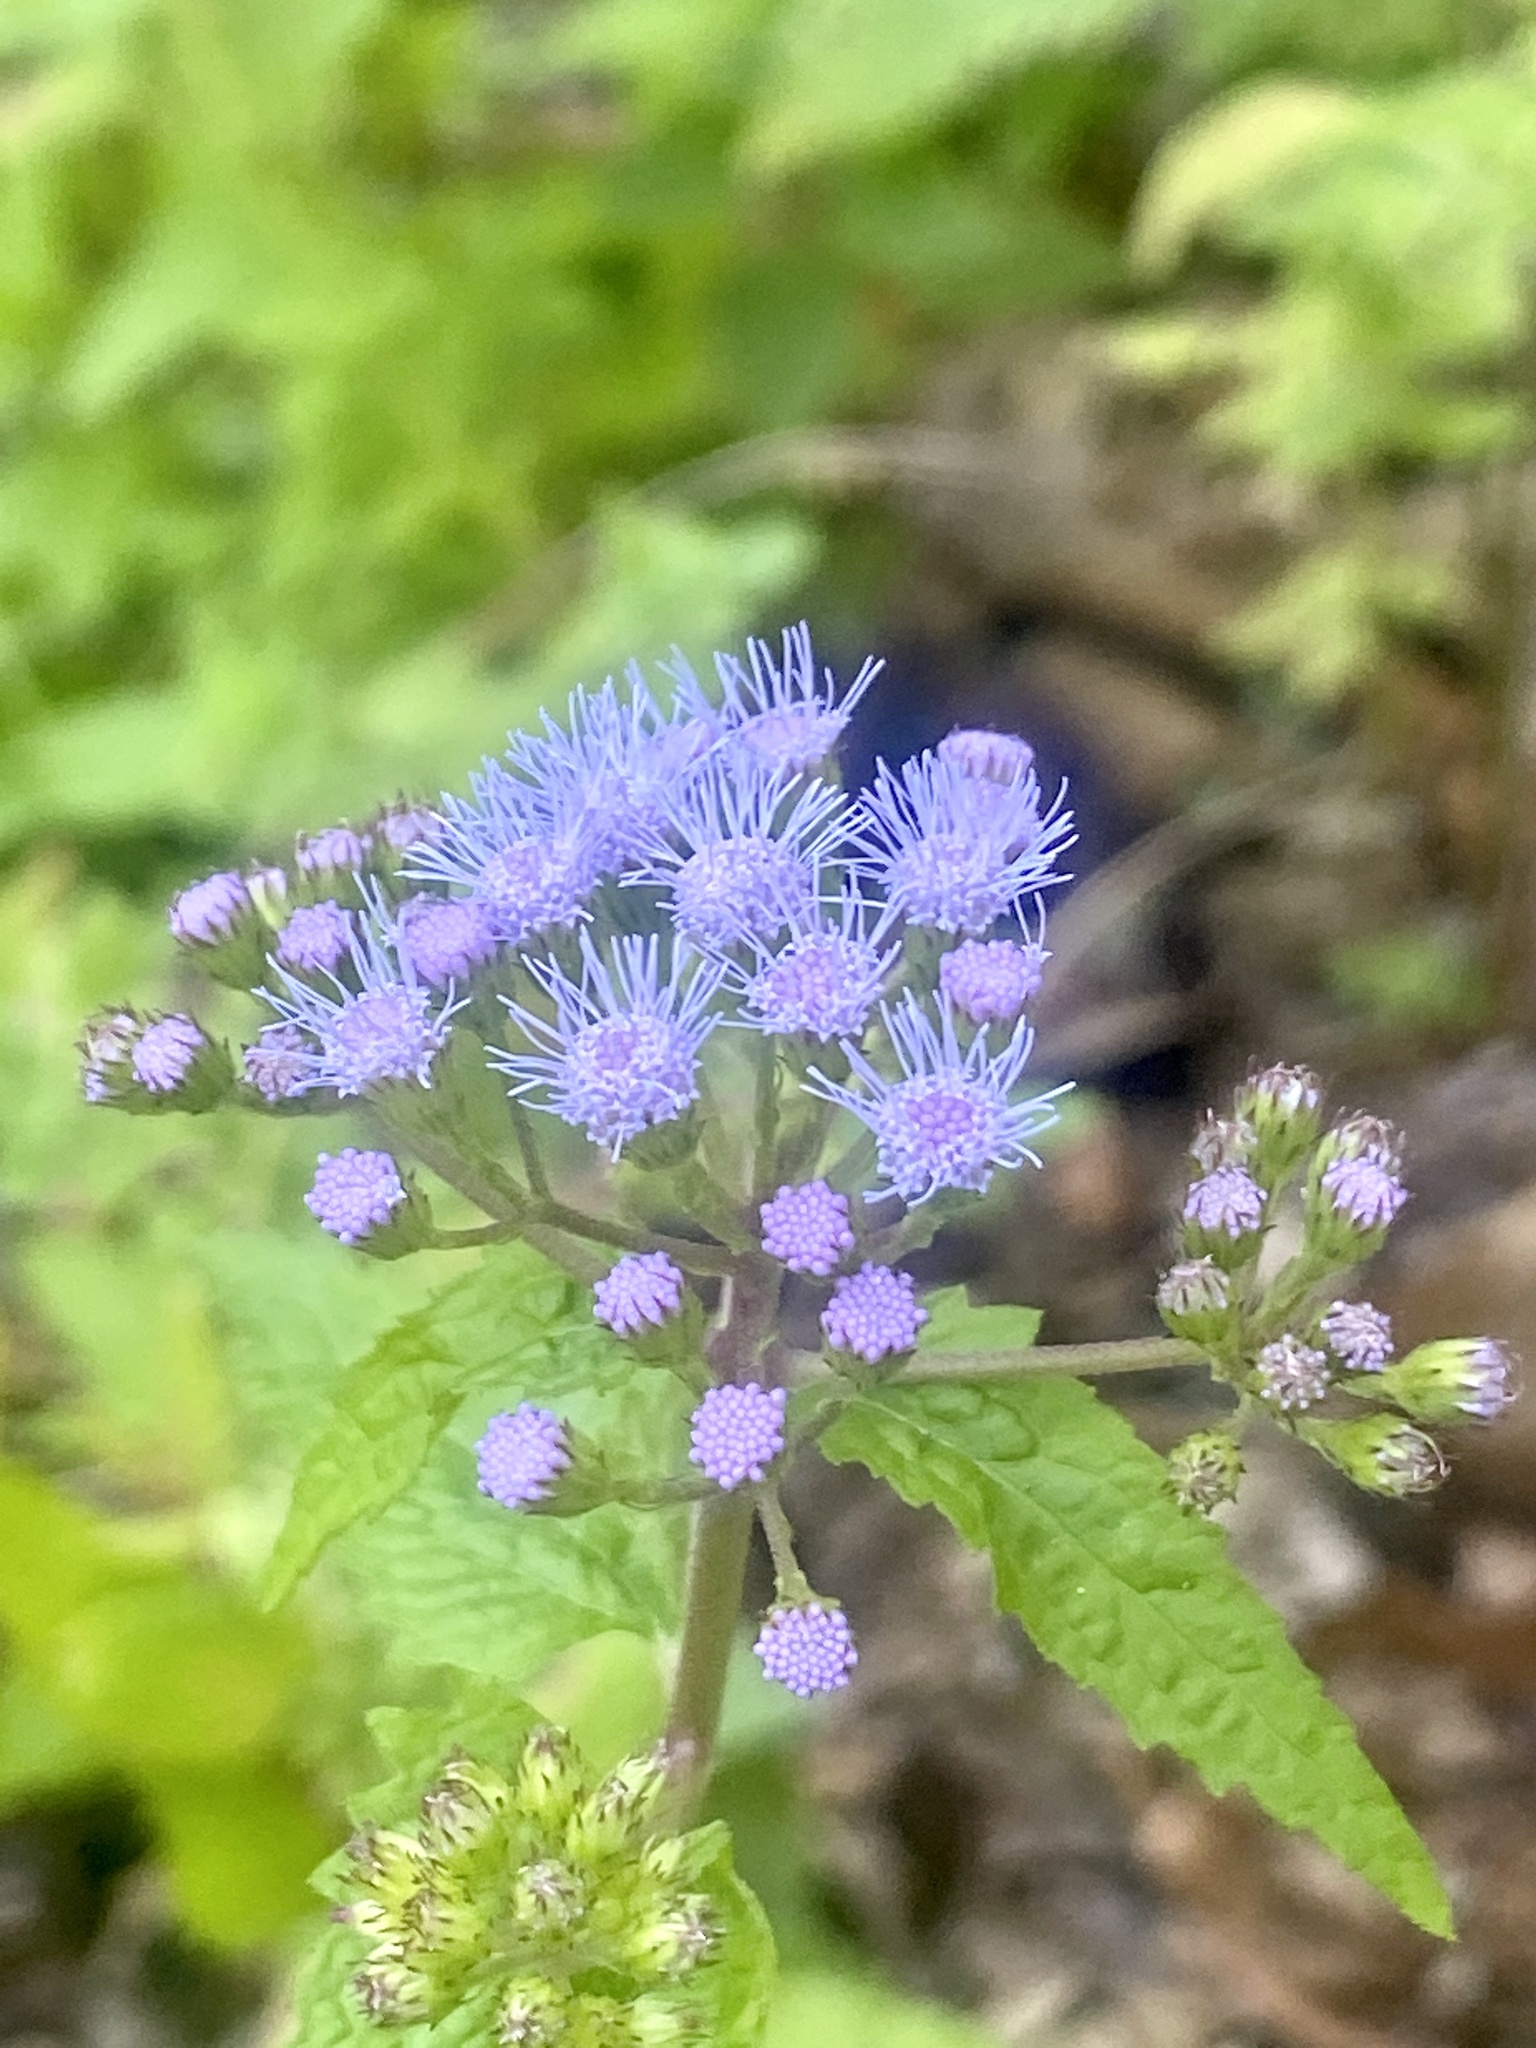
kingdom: Plantae
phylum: Tracheophyta
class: Magnoliopsida
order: Asterales
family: Asteraceae
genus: Conoclinium
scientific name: Conoclinium coelestinum
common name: Blue mistflower
